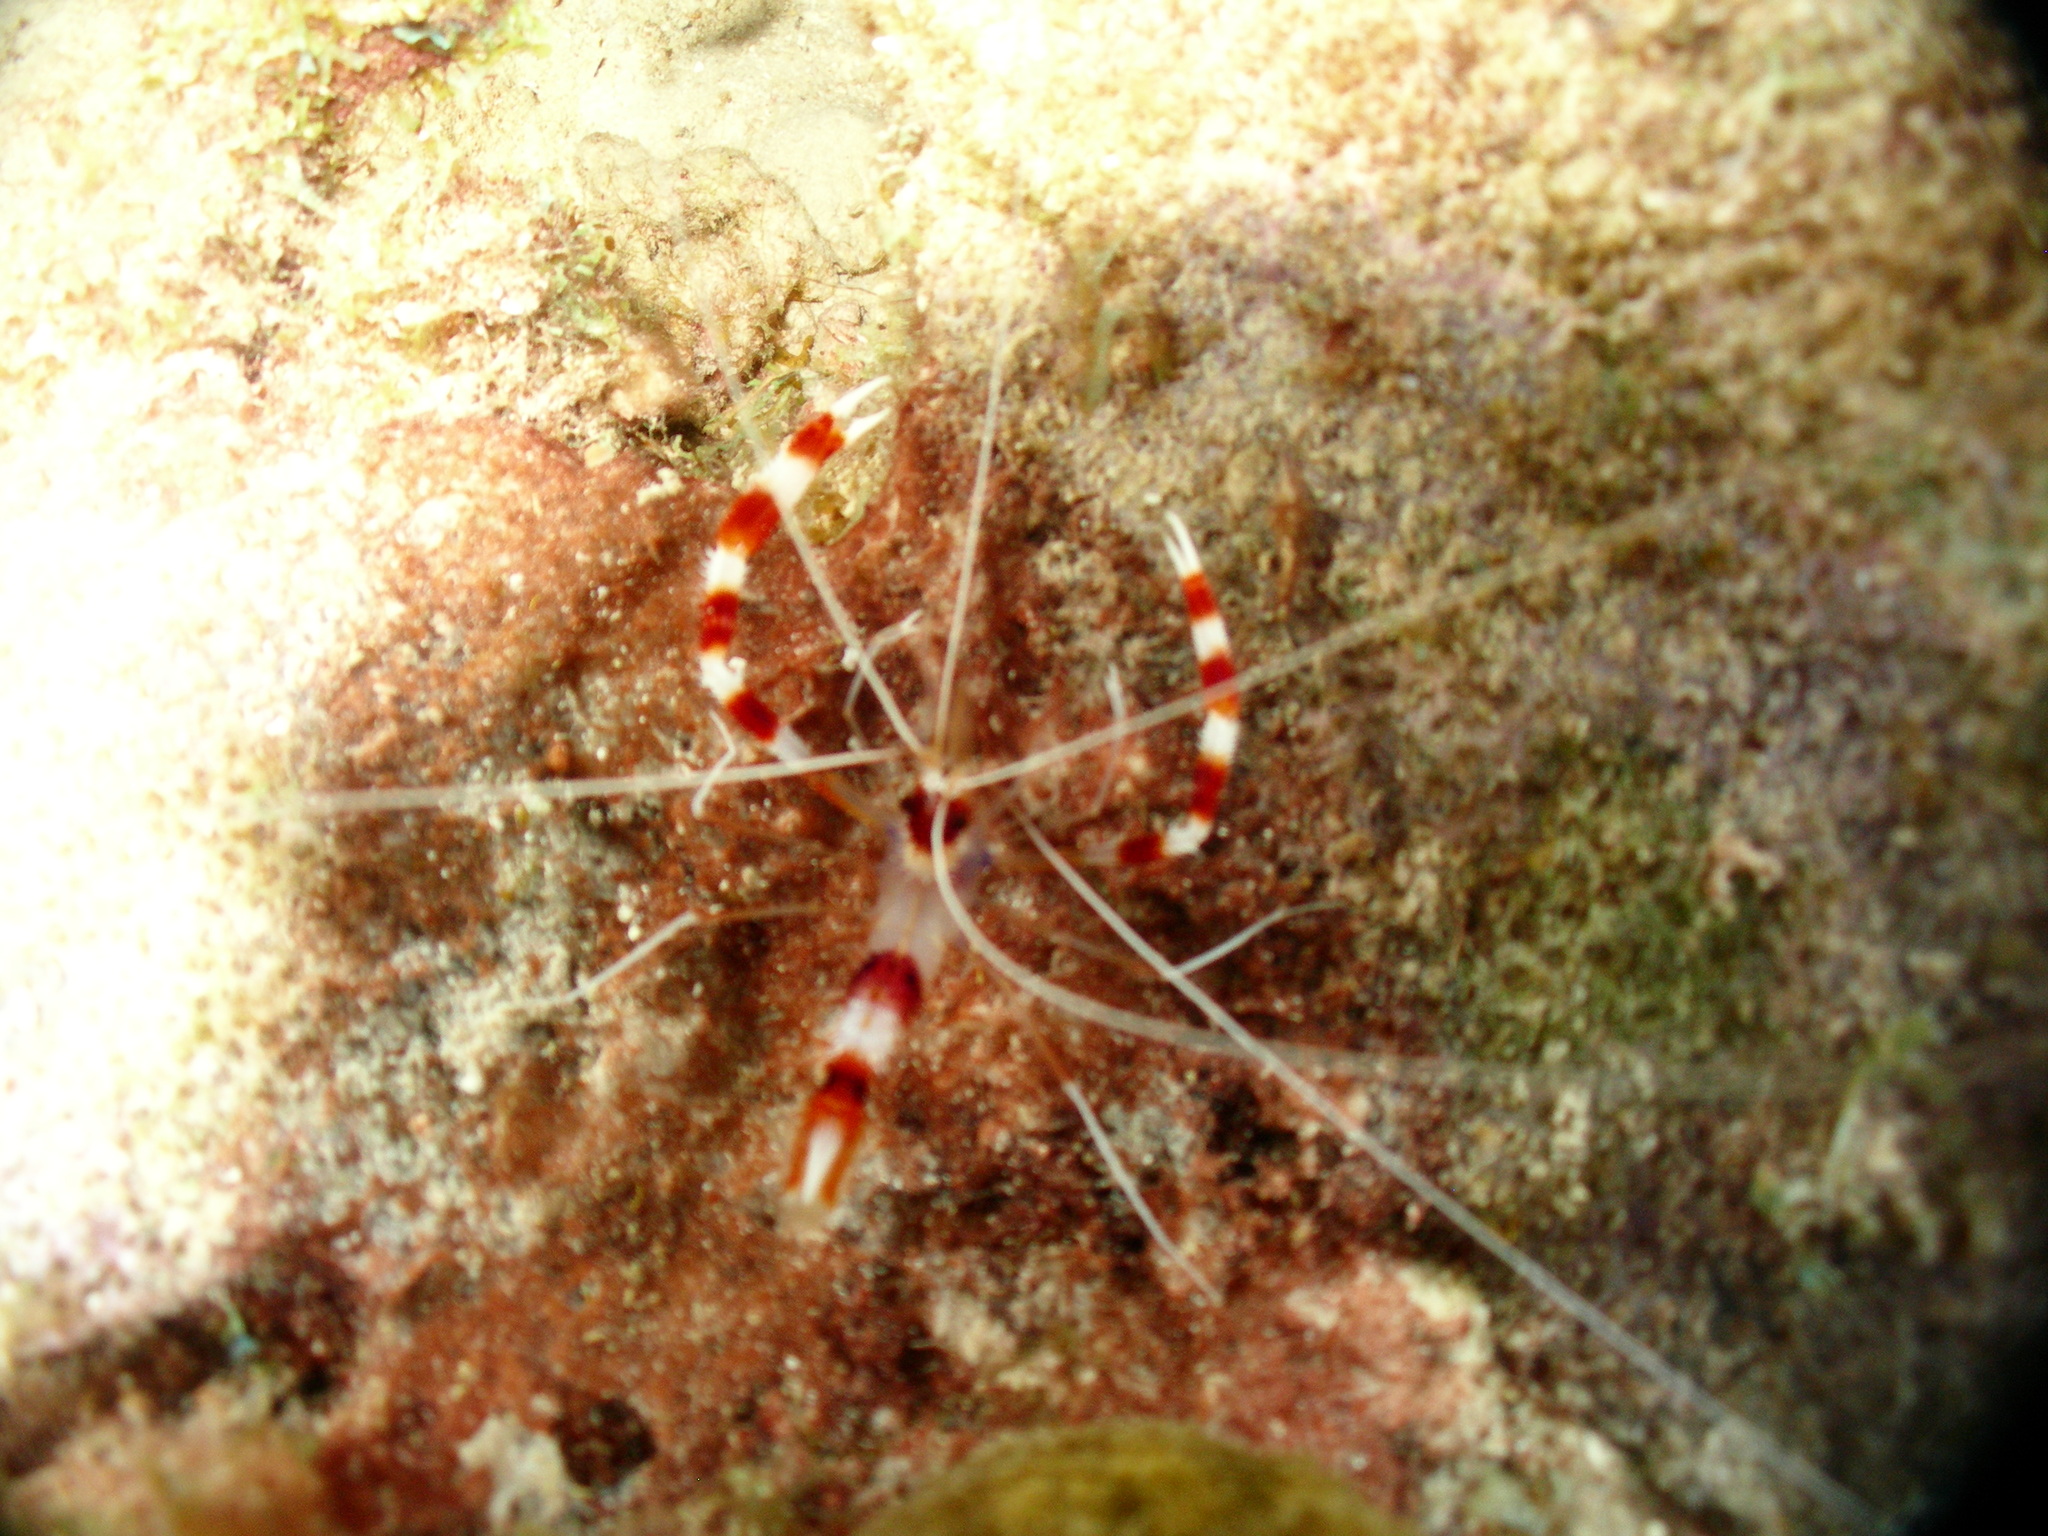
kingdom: Animalia
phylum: Arthropoda
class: Malacostraca
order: Decapoda
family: Stenopodidae
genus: Stenopus
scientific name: Stenopus hispidus
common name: Banded coral shrimp
